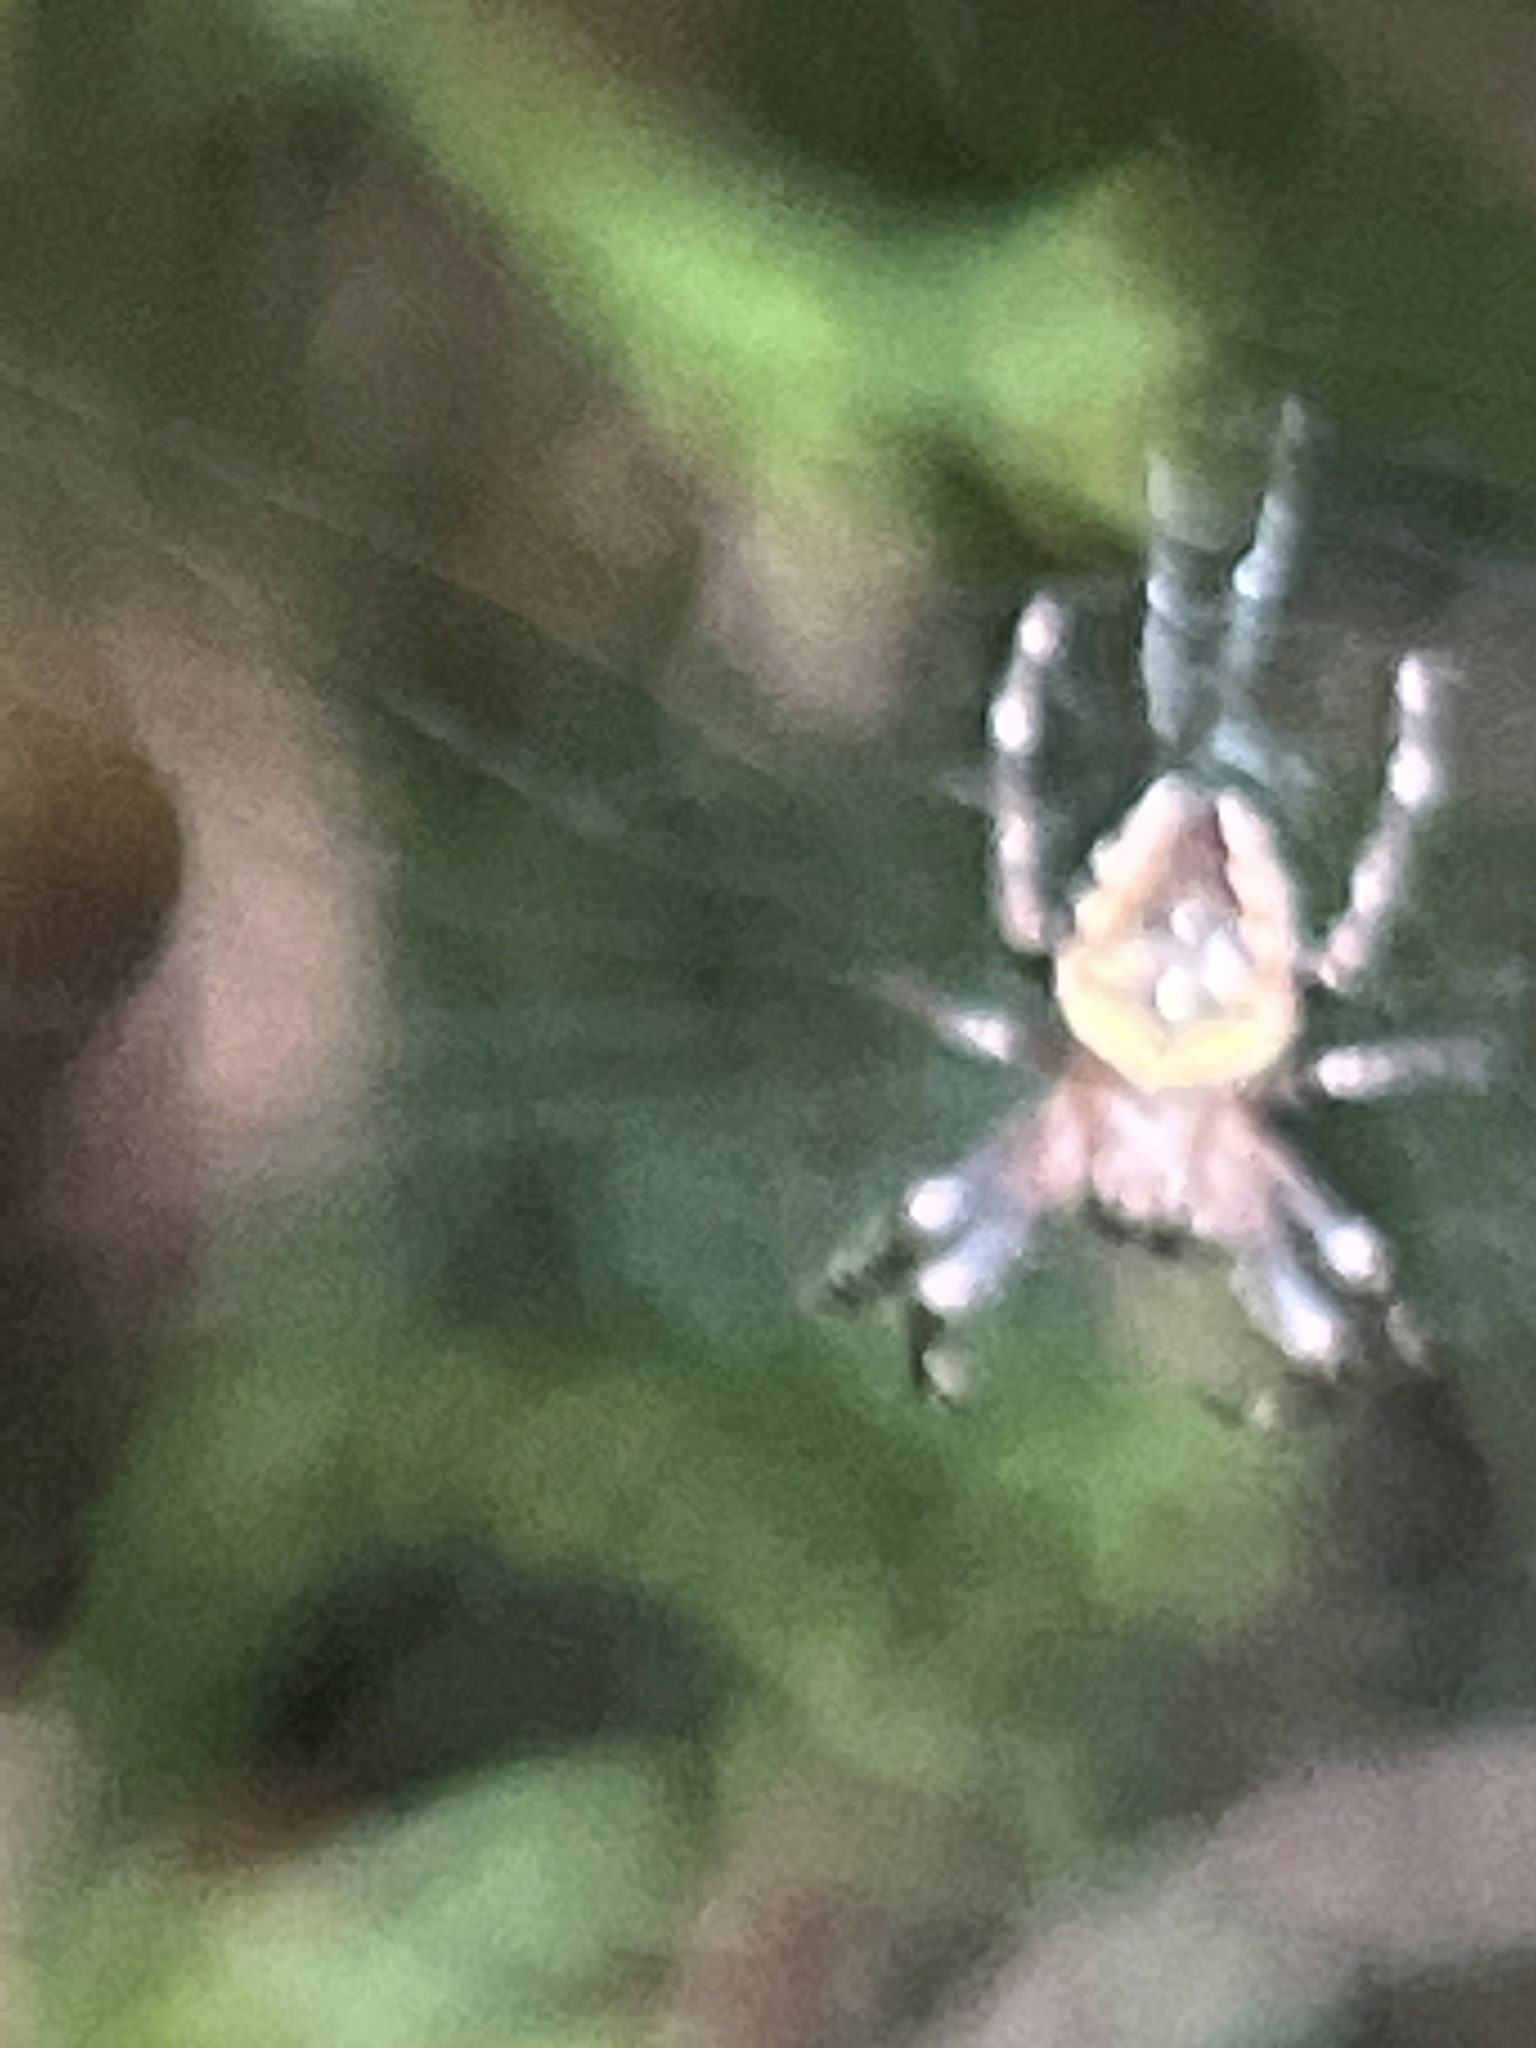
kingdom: Animalia
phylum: Arthropoda
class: Arachnida
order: Araneae
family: Araneidae
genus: Araneus
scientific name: Araneus diadematus
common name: Cross orbweaver
